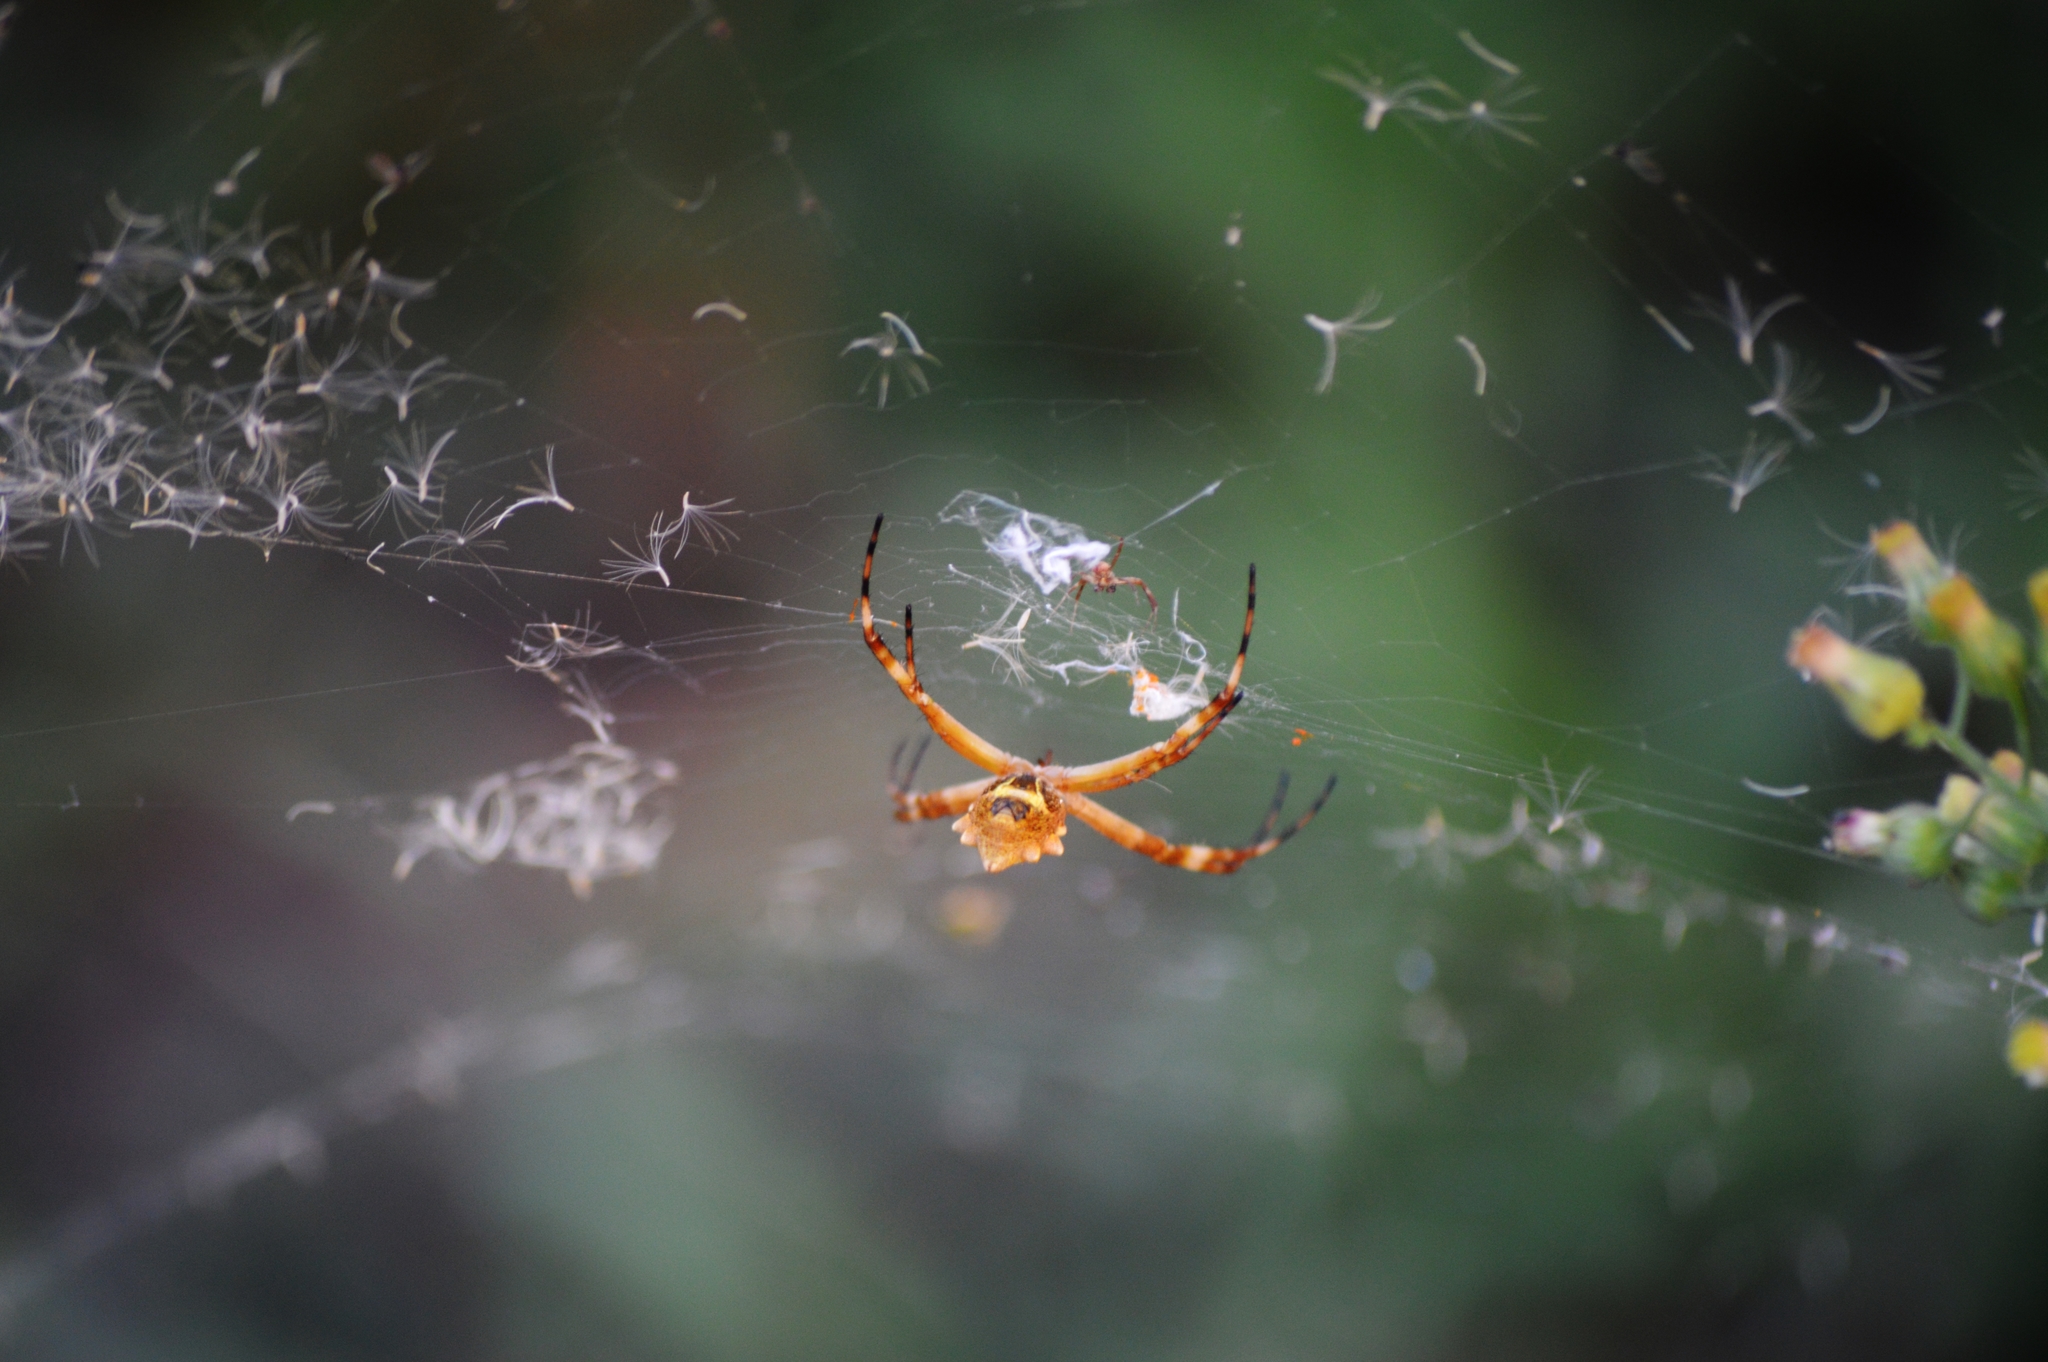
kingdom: Animalia
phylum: Arthropoda
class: Arachnida
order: Araneae
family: Araneidae
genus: Argiope
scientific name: Argiope argentata
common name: Orb weavers
